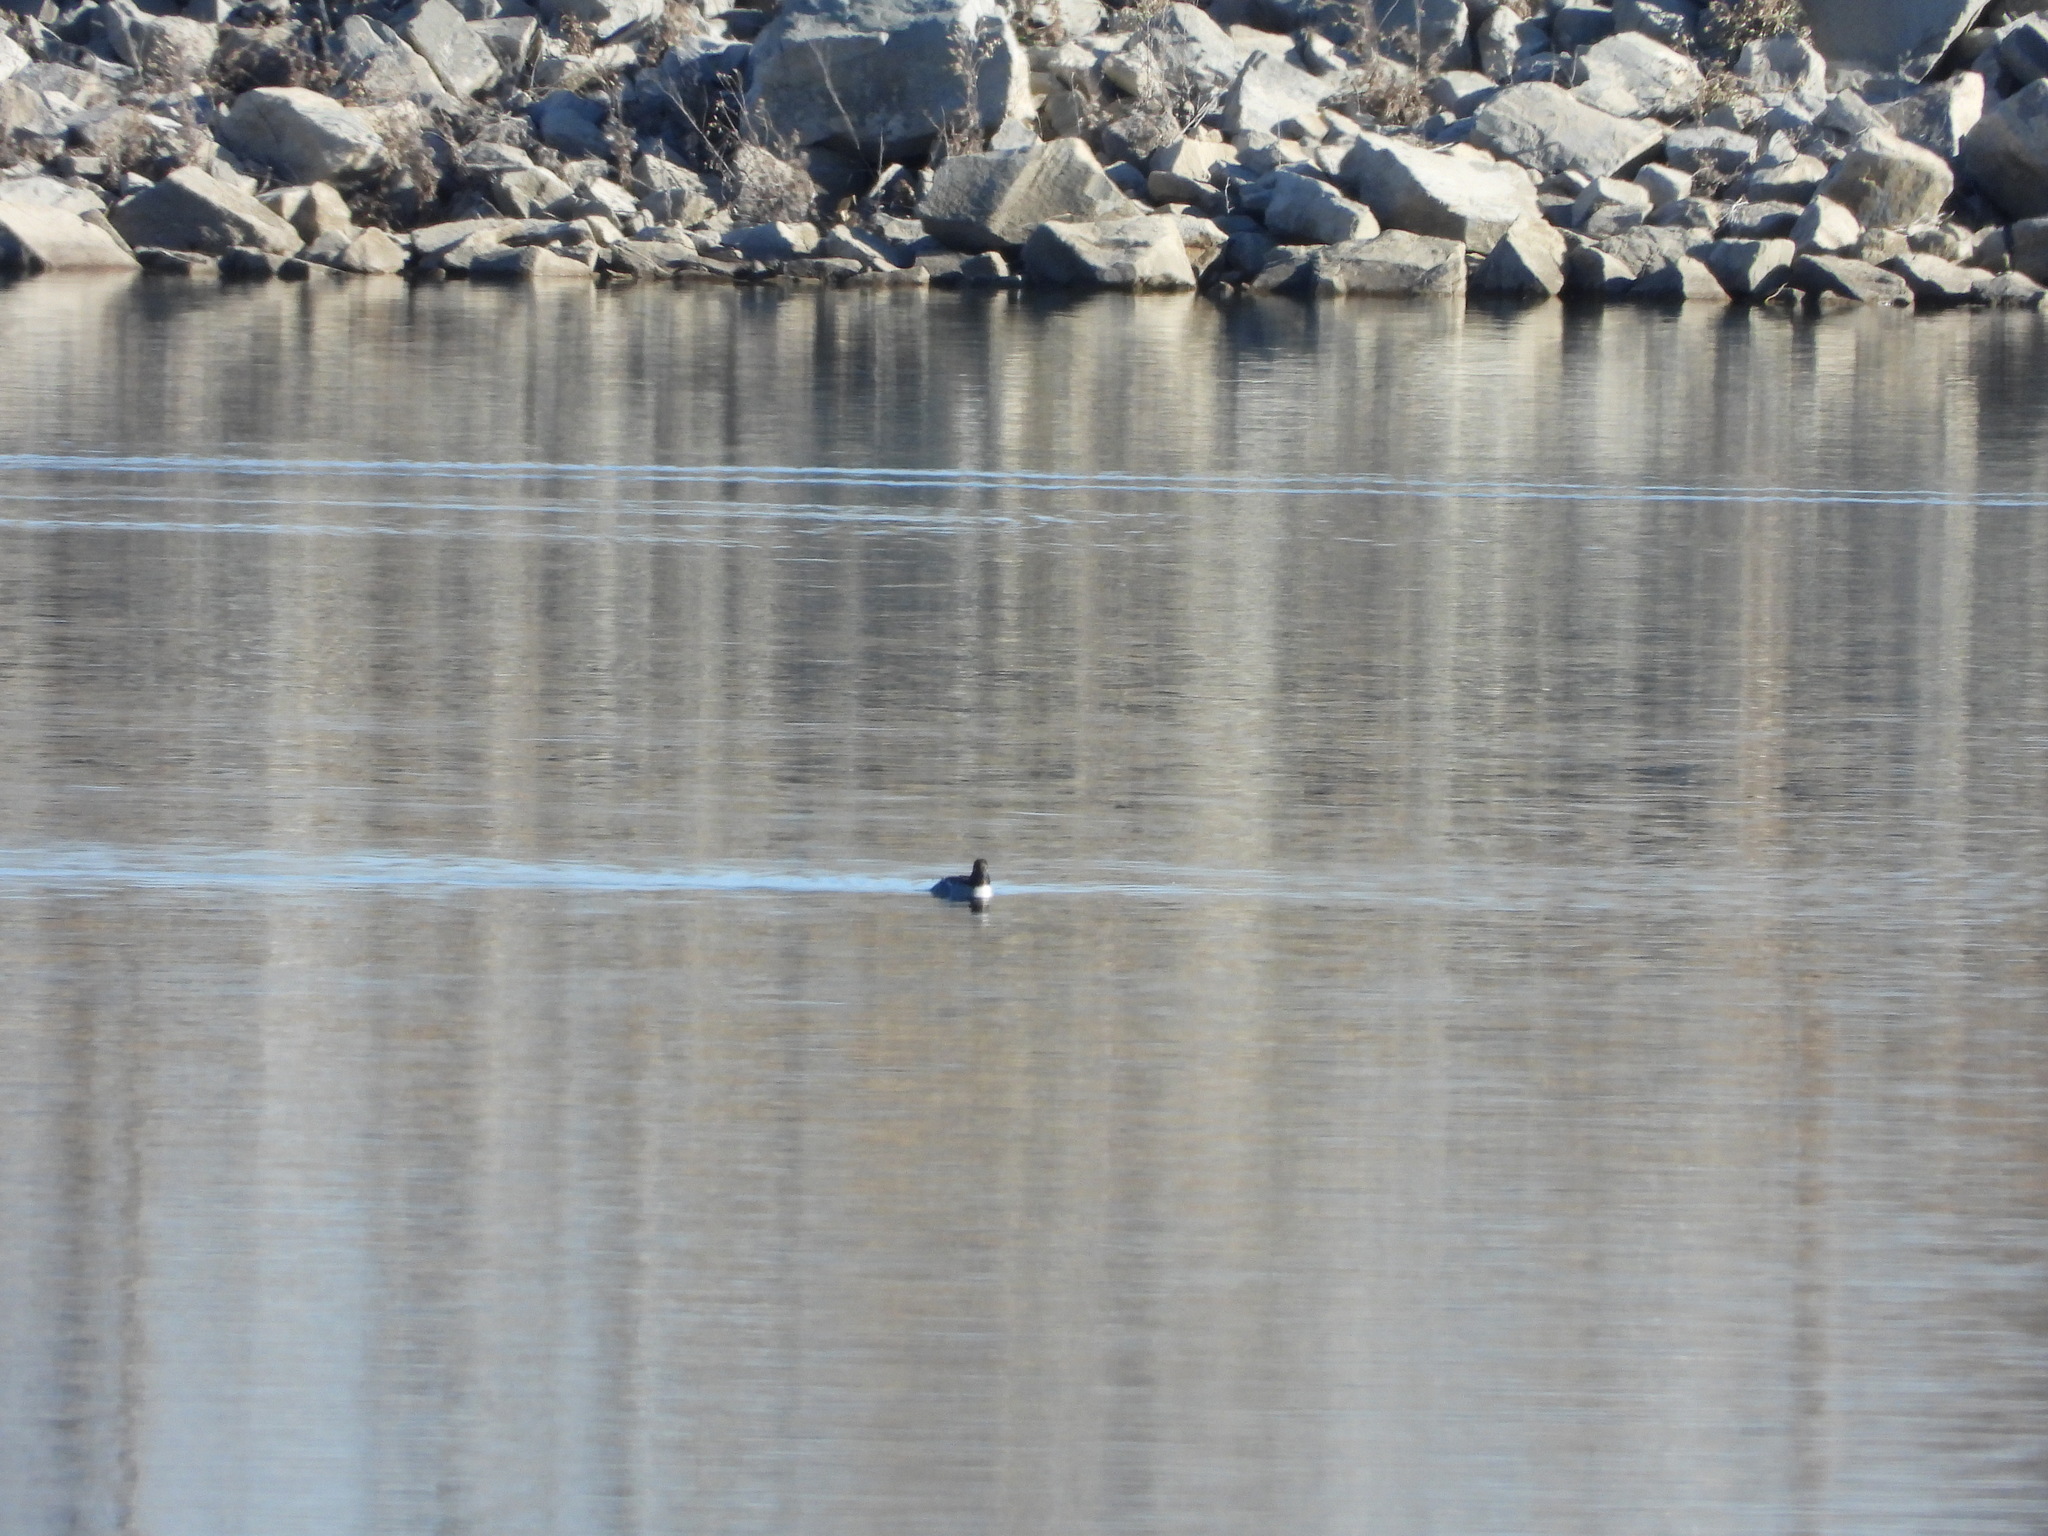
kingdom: Animalia
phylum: Chordata
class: Aves
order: Anseriformes
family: Anatidae
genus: Bucephala
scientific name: Bucephala clangula
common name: Common goldeneye
